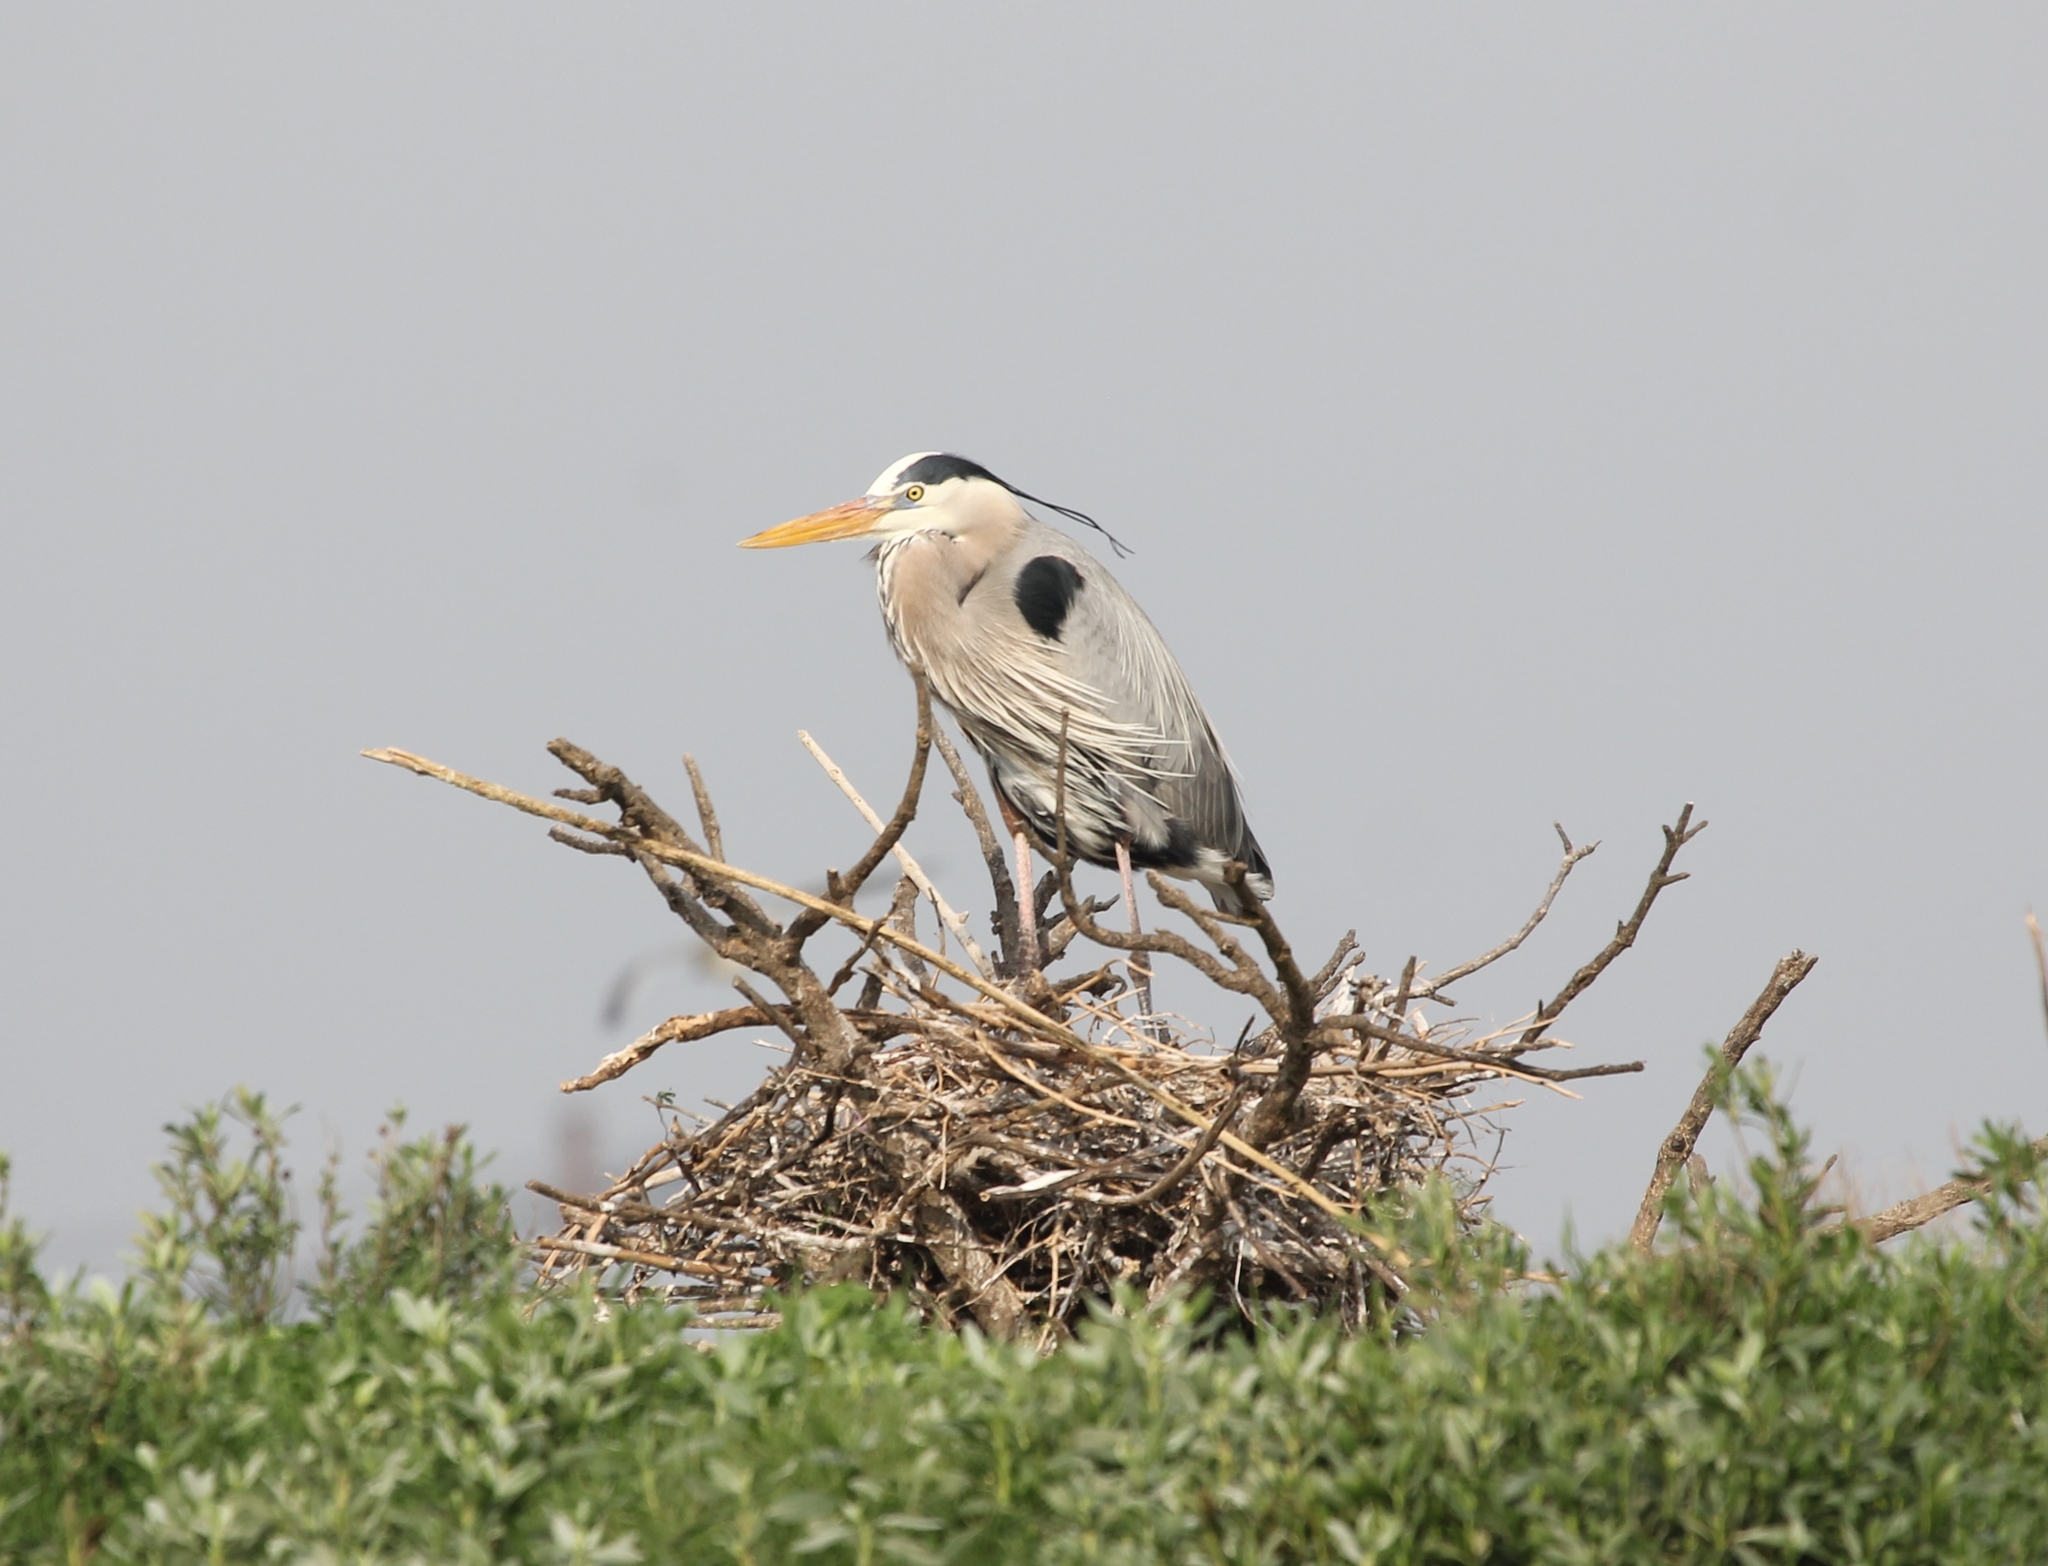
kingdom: Animalia
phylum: Chordata
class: Aves
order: Pelecaniformes
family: Ardeidae
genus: Ardea
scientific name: Ardea herodias
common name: Great blue heron
